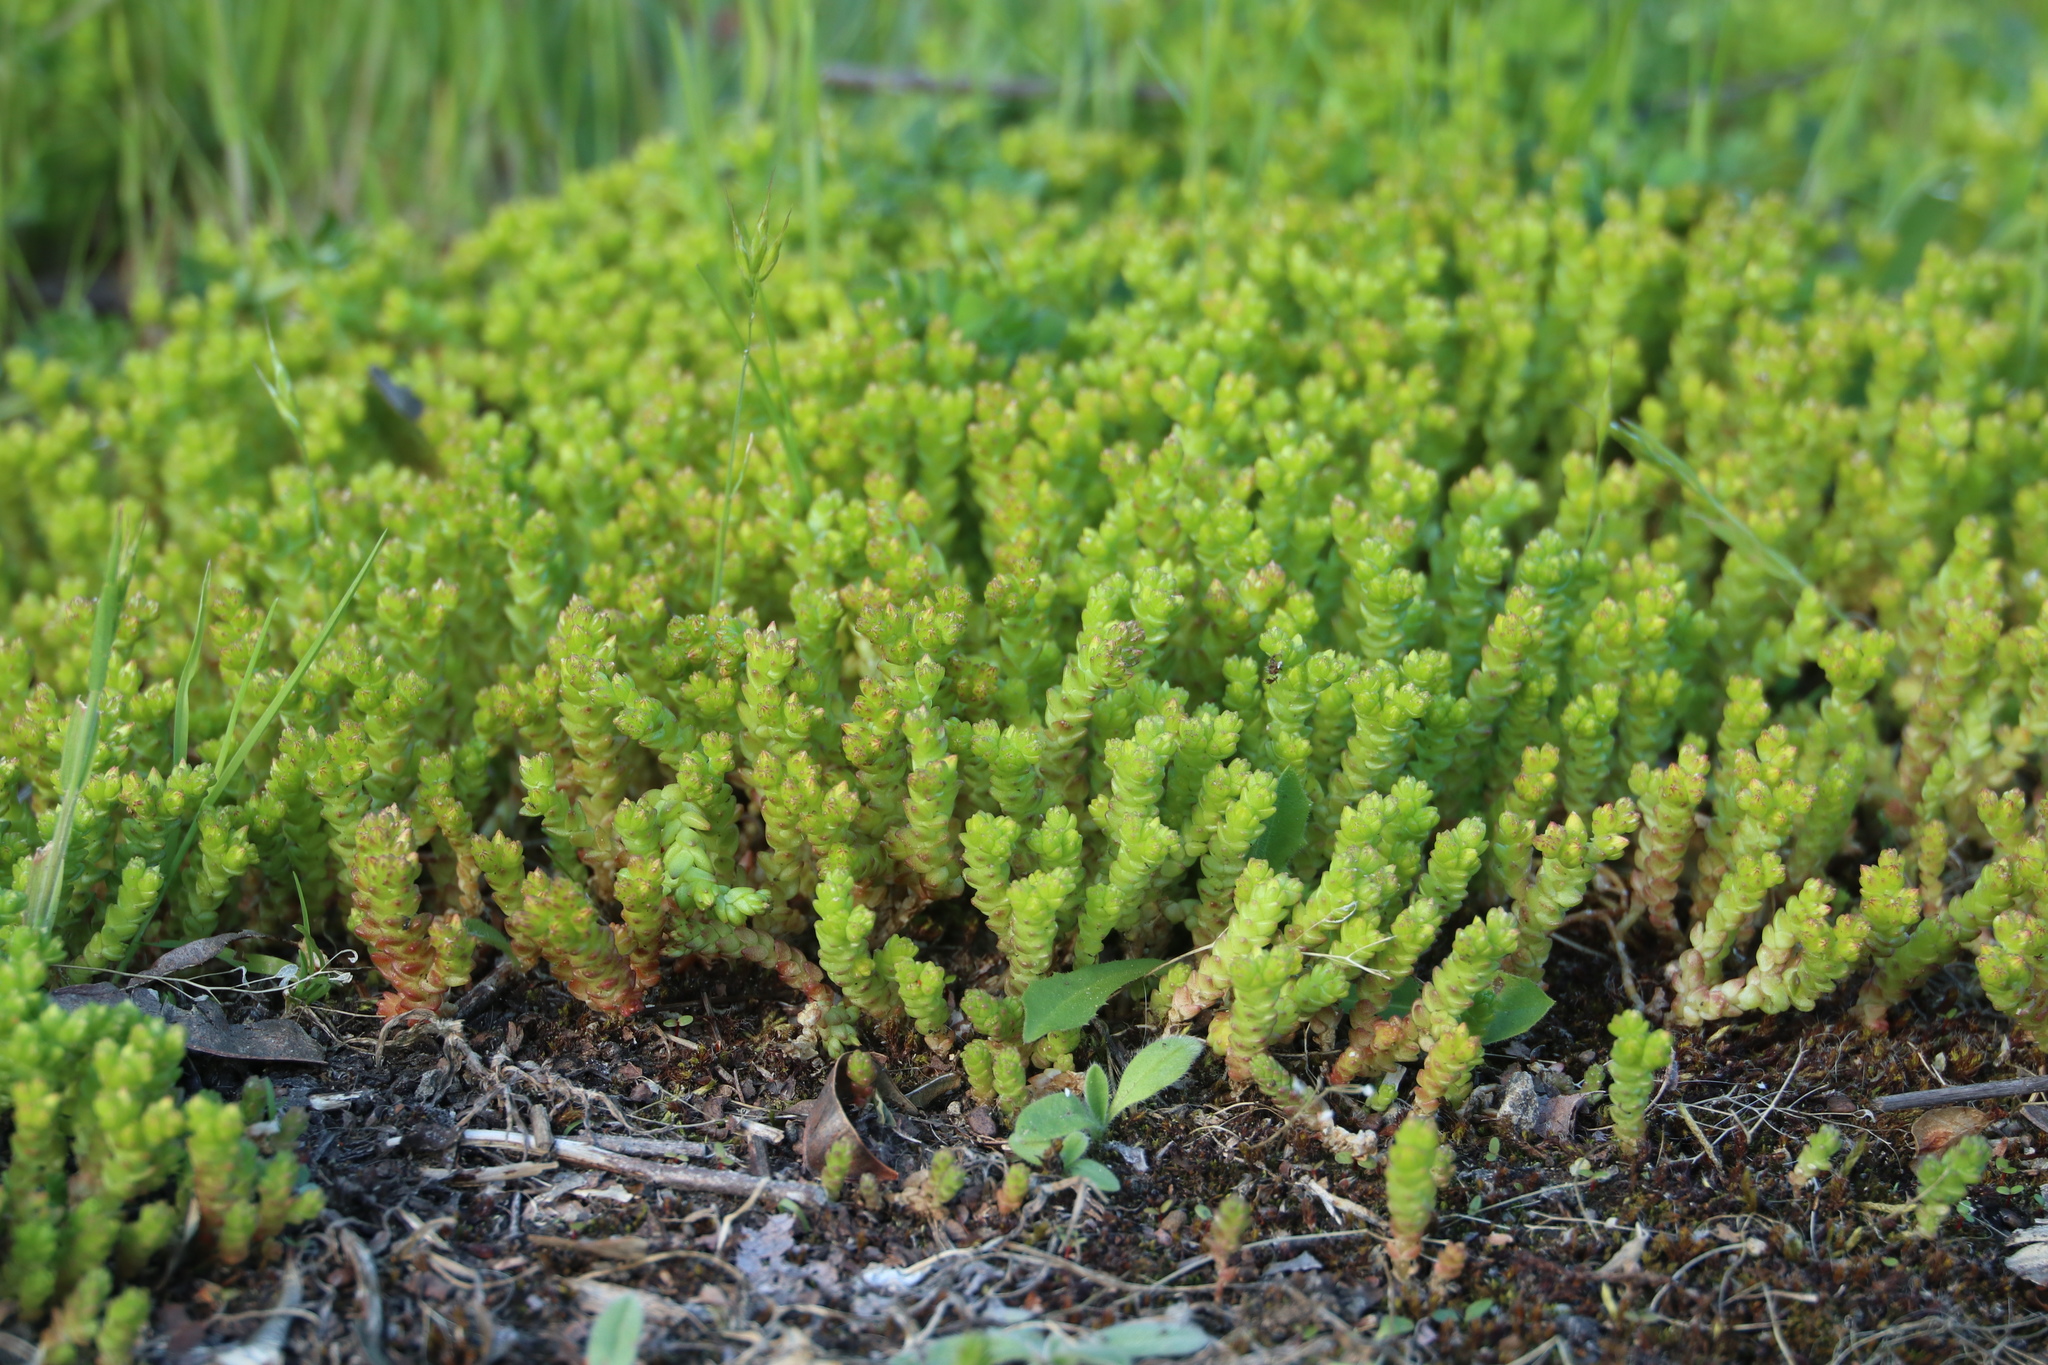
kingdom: Plantae
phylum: Tracheophyta
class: Magnoliopsida
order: Saxifragales
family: Crassulaceae
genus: Sedum
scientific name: Sedum acre
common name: Biting stonecrop
